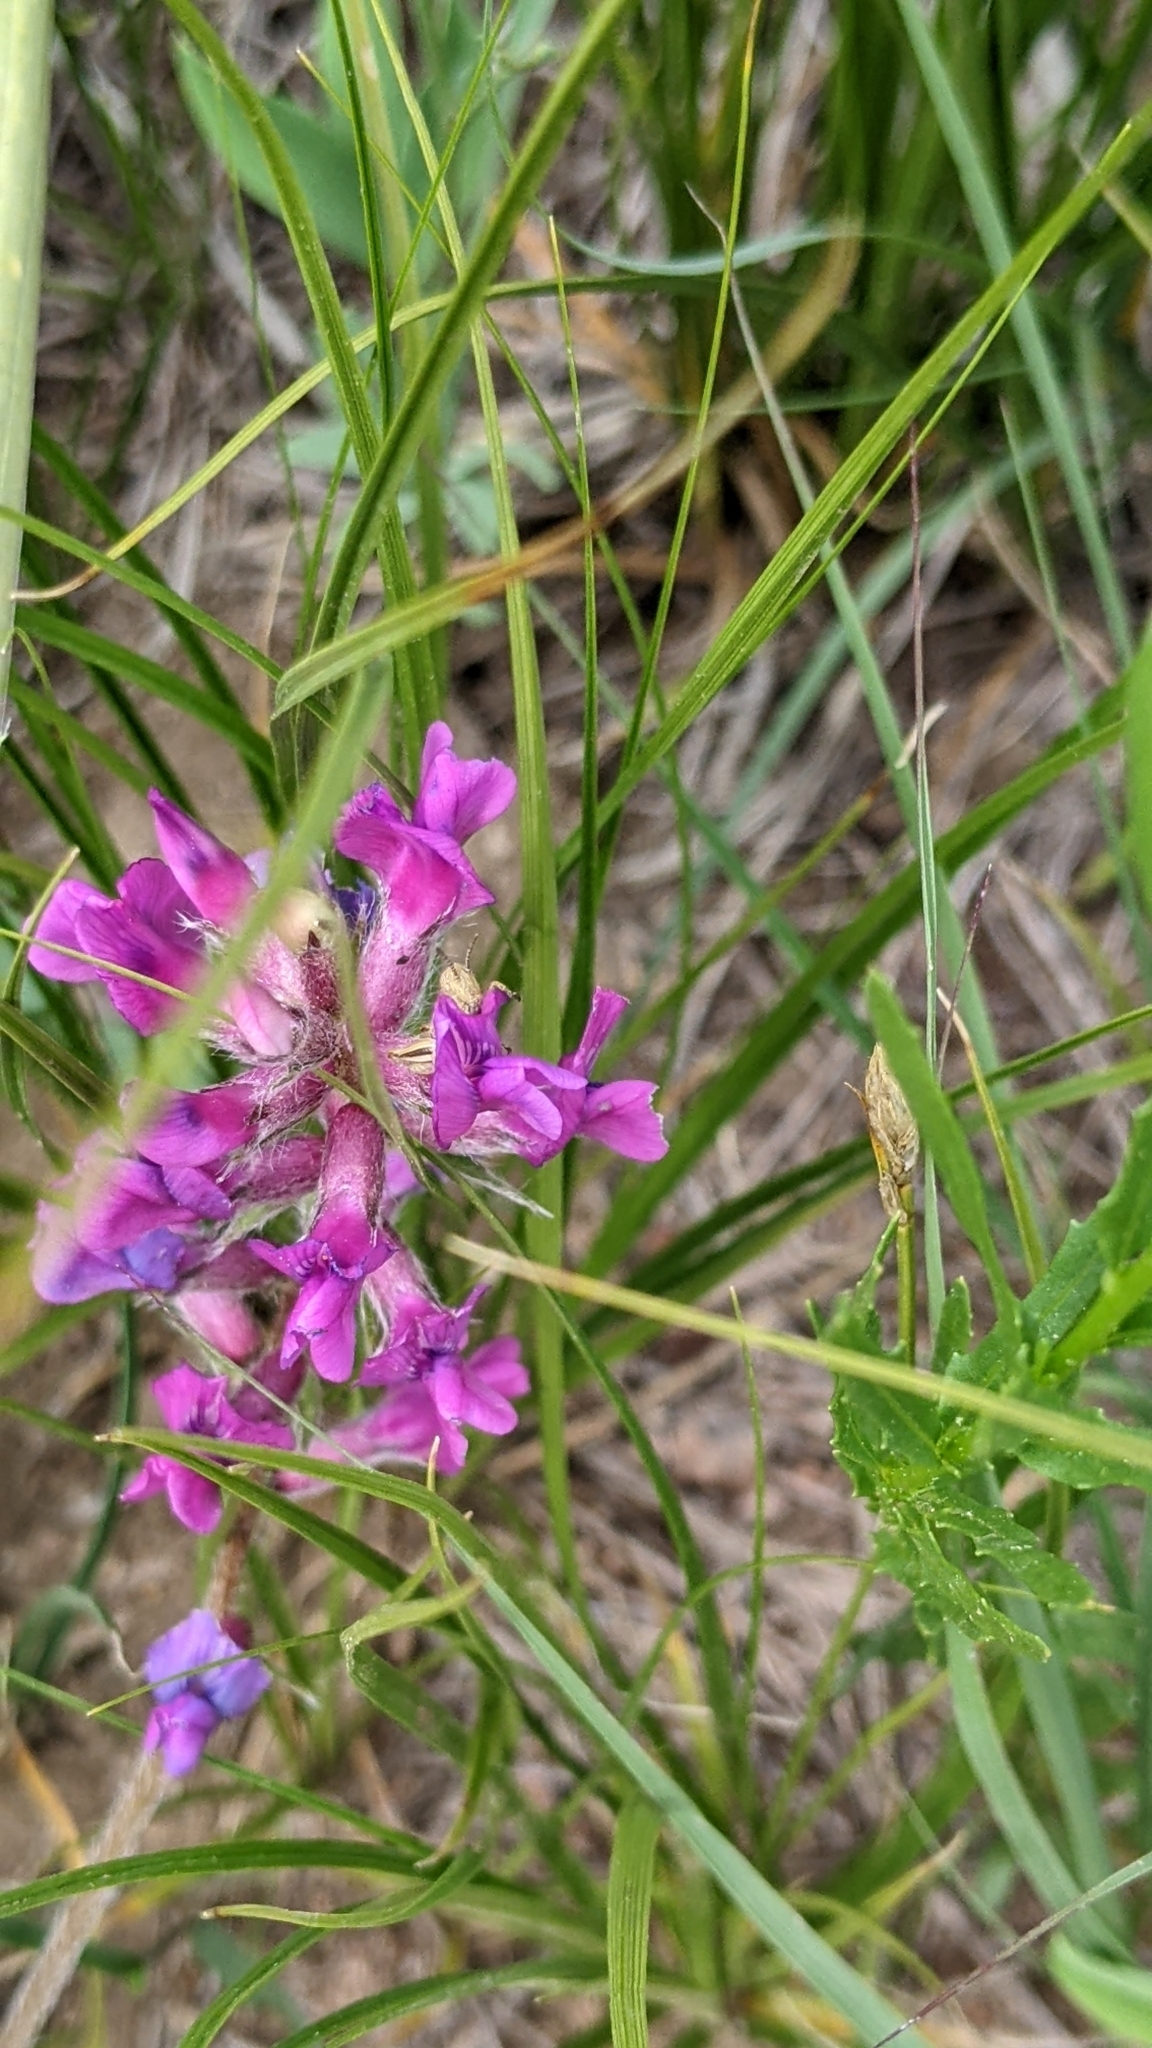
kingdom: Plantae
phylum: Tracheophyta
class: Magnoliopsida
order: Fabales
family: Fabaceae
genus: Oxytropis
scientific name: Oxytropis lambertii
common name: Purple locoweed
